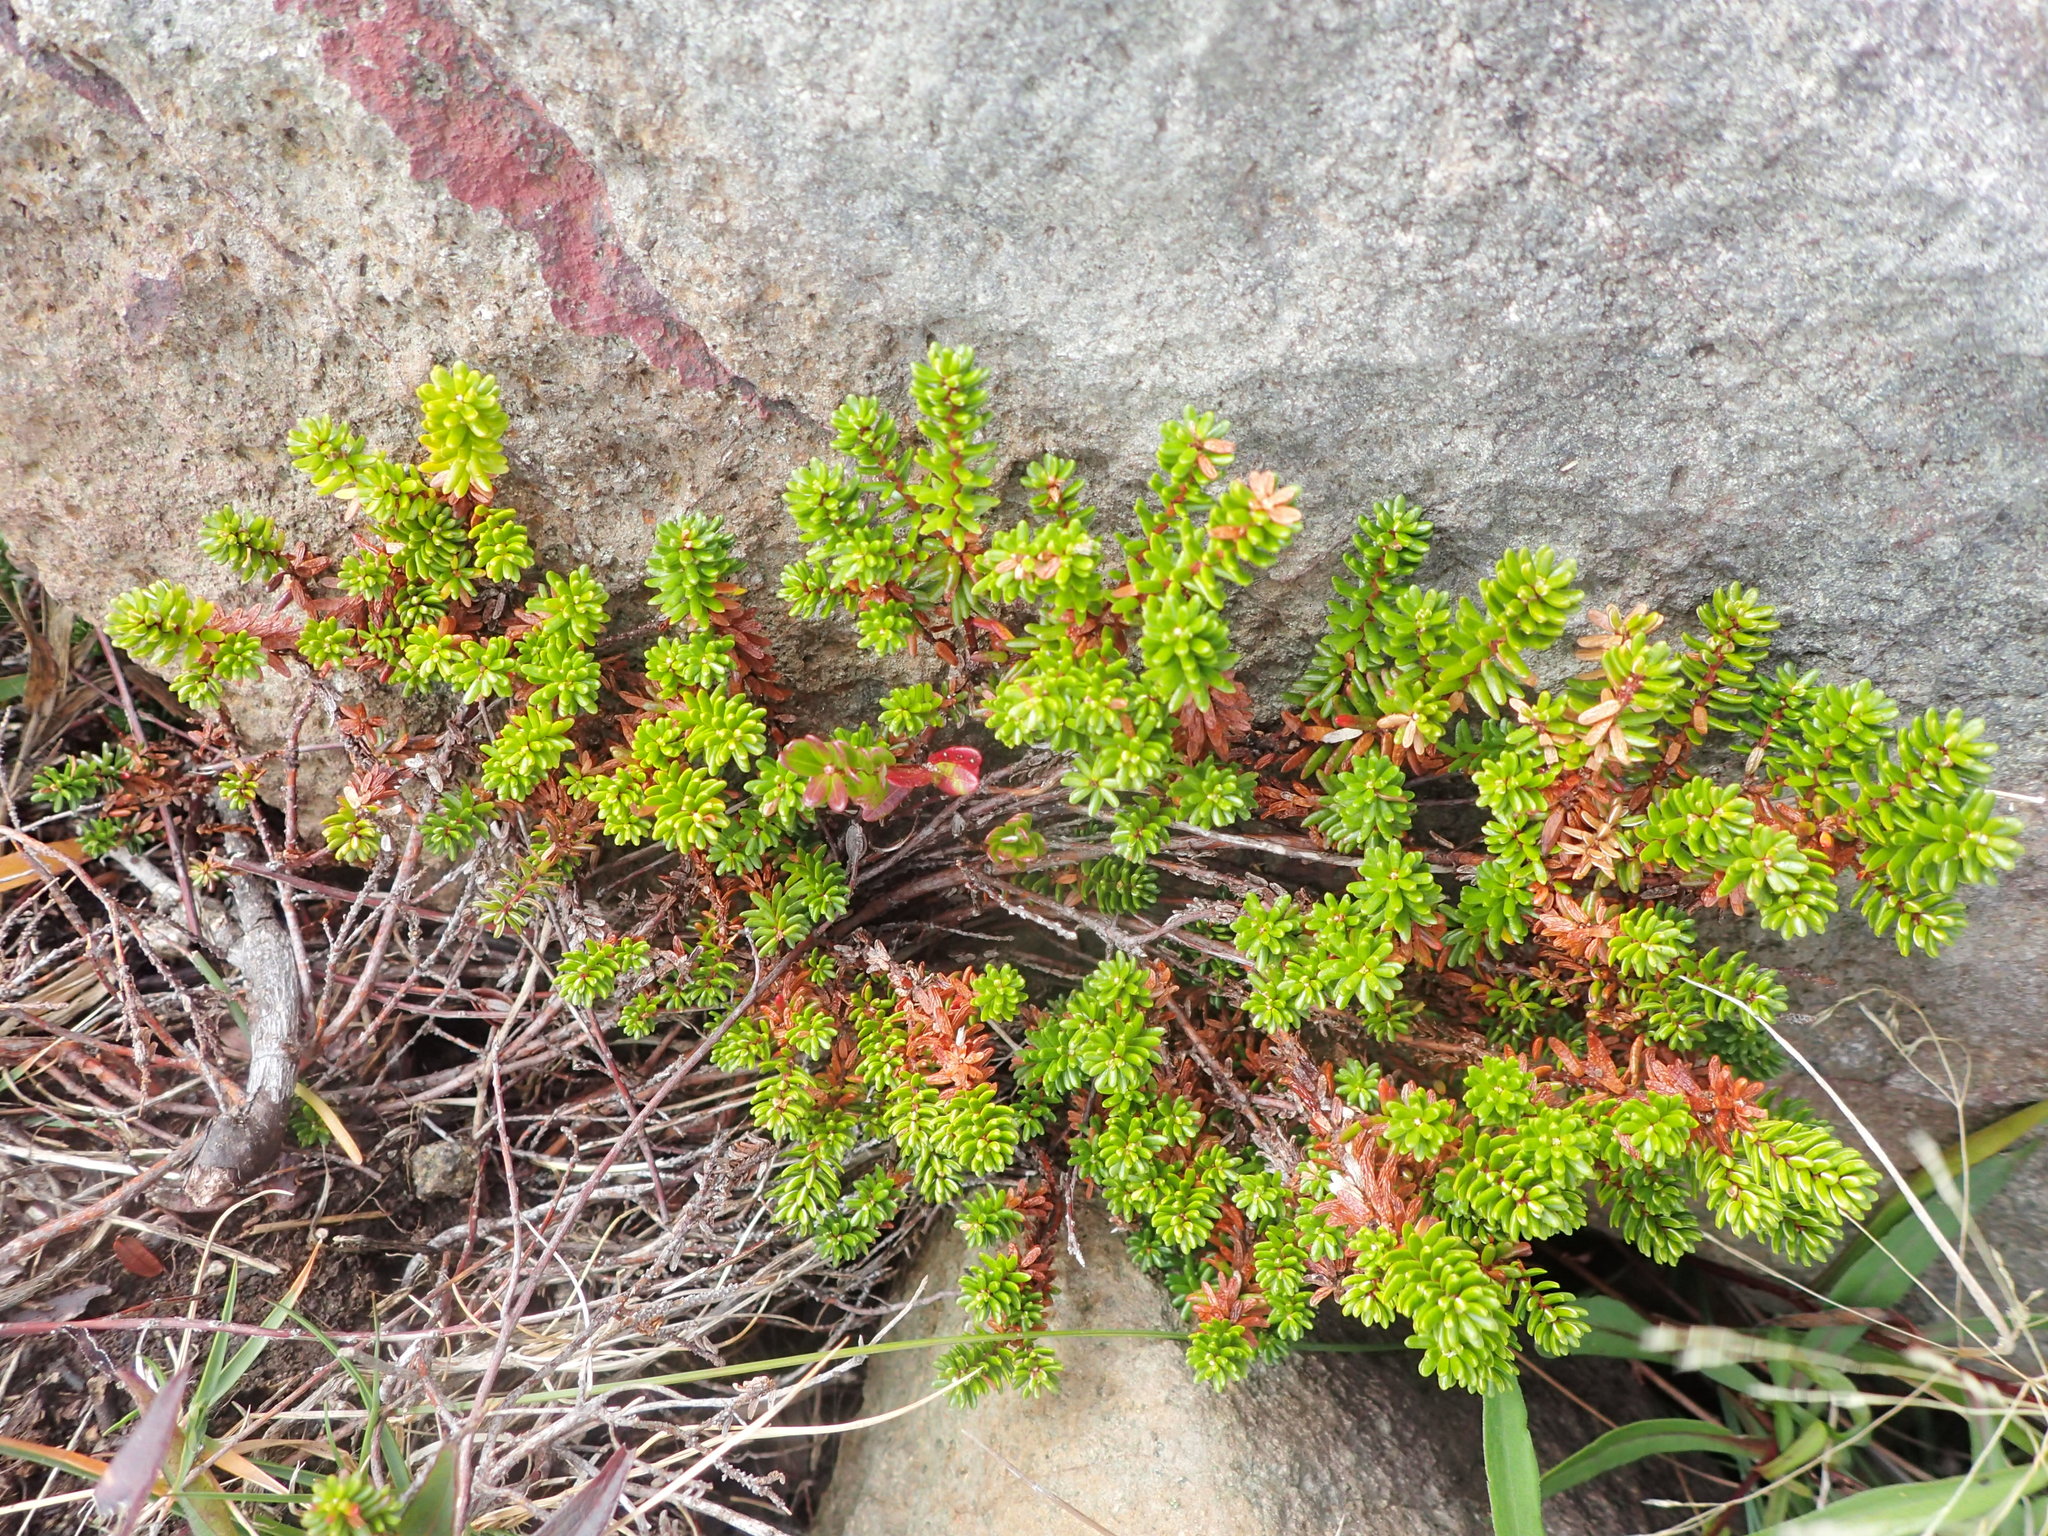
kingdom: Plantae
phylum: Tracheophyta
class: Magnoliopsida
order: Ericales
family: Ericaceae
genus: Empetrum
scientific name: Empetrum nigrum
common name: Black crowberry
